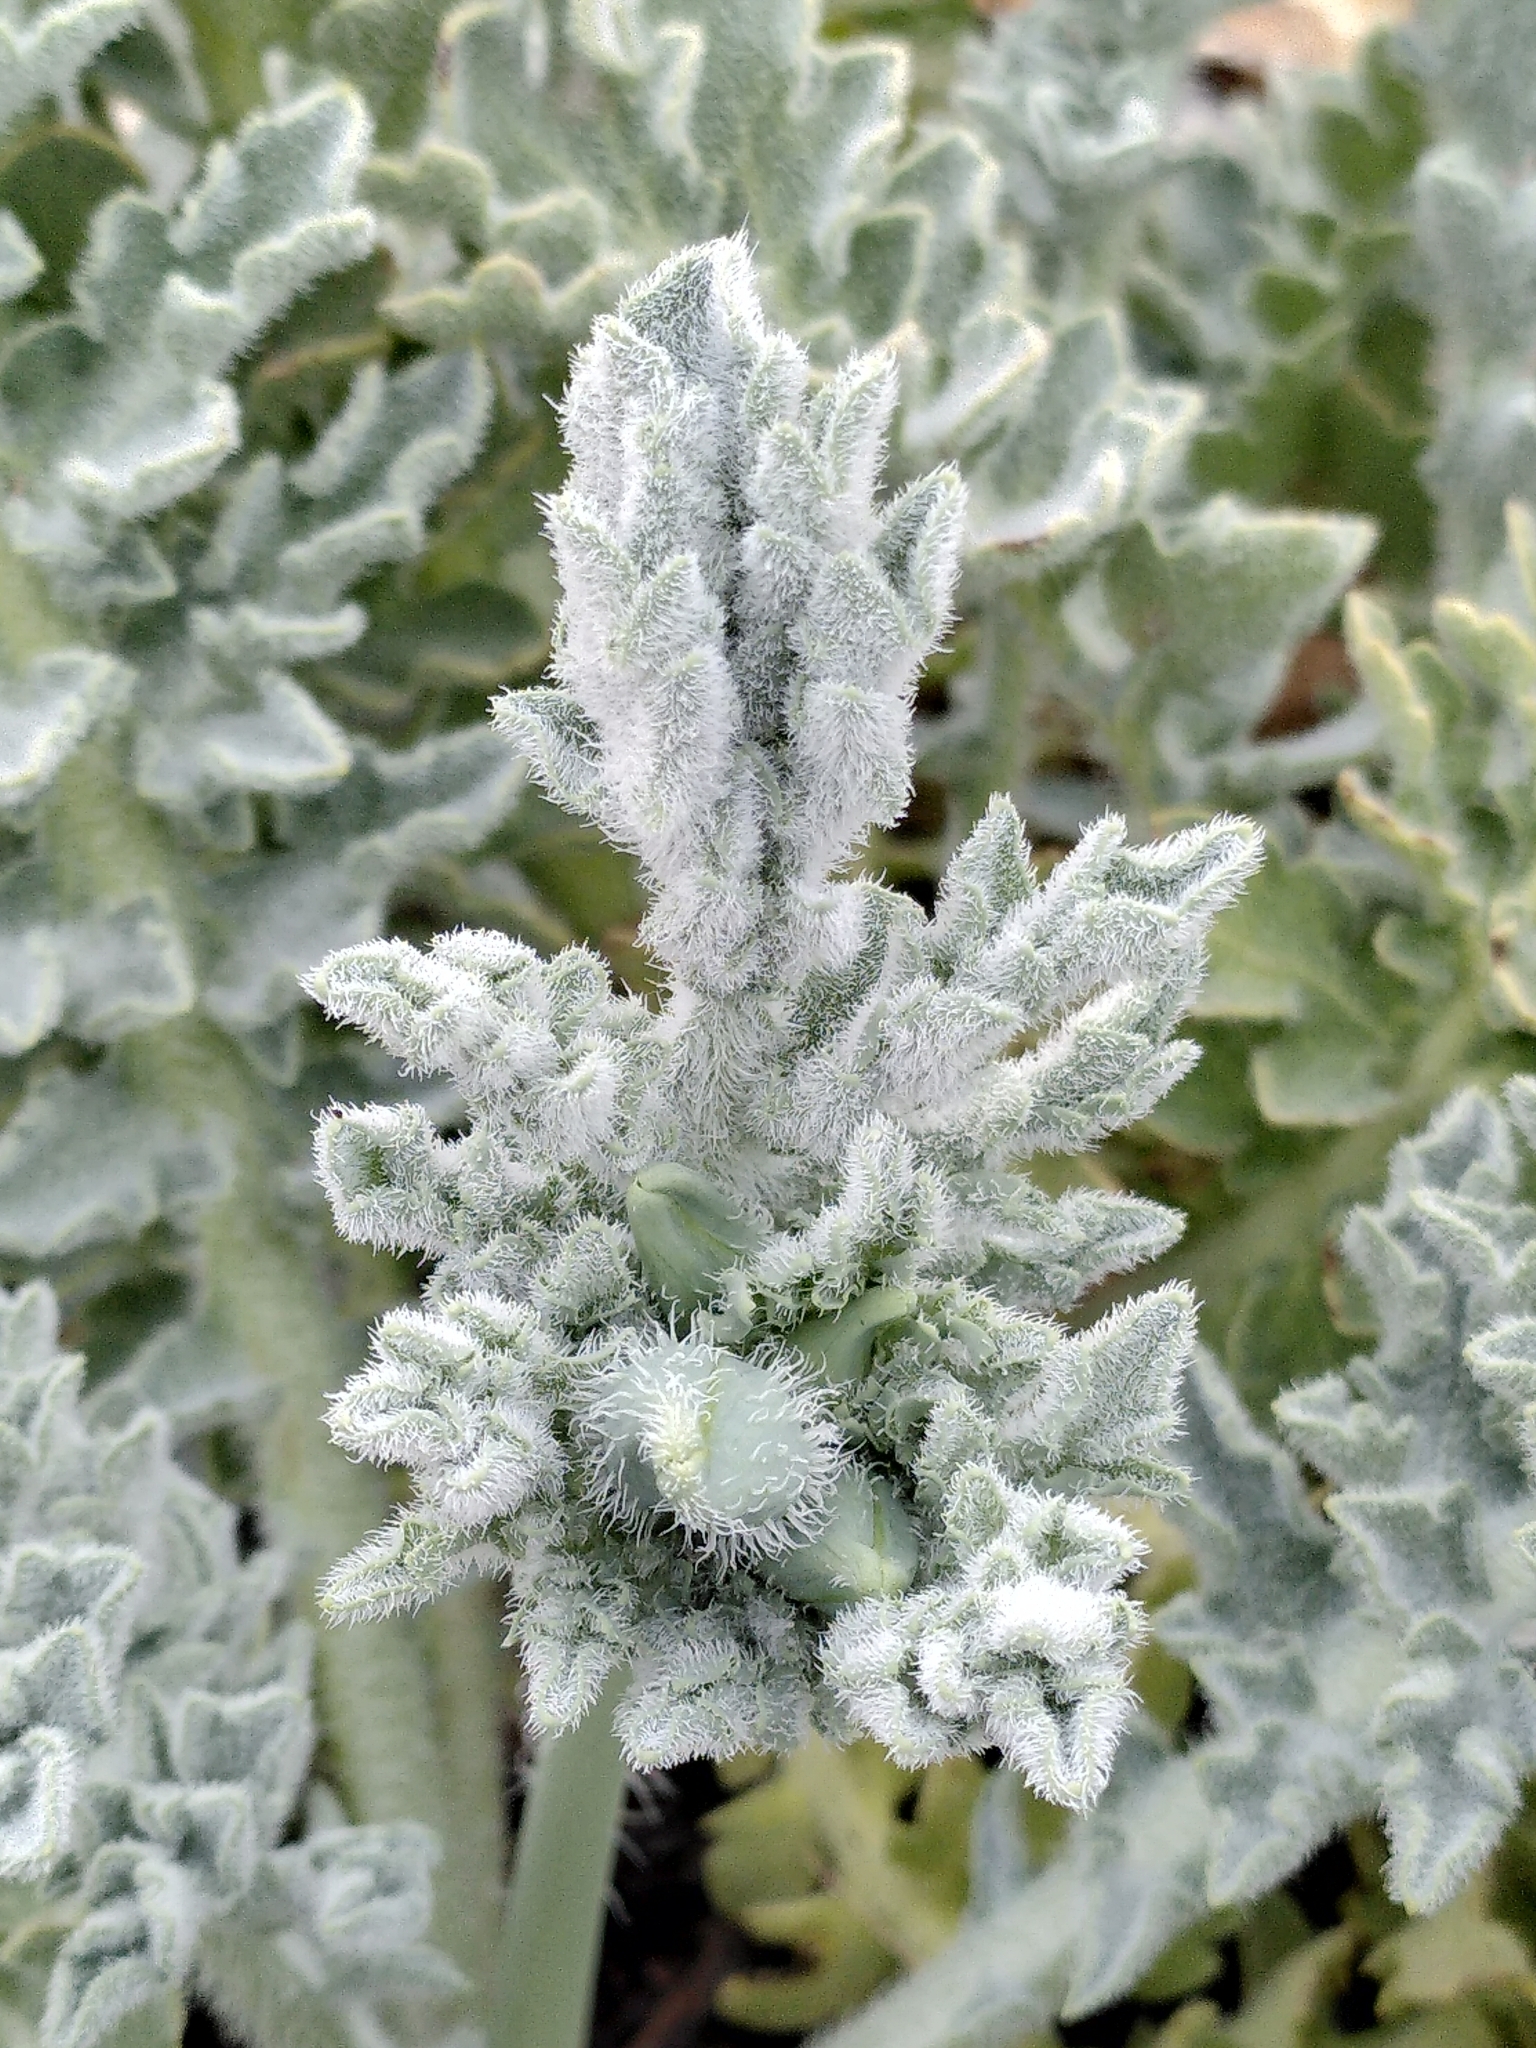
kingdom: Plantae
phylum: Tracheophyta
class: Magnoliopsida
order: Ranunculales
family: Papaveraceae
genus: Glaucium
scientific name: Glaucium flavum
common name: Yellow horned-poppy
